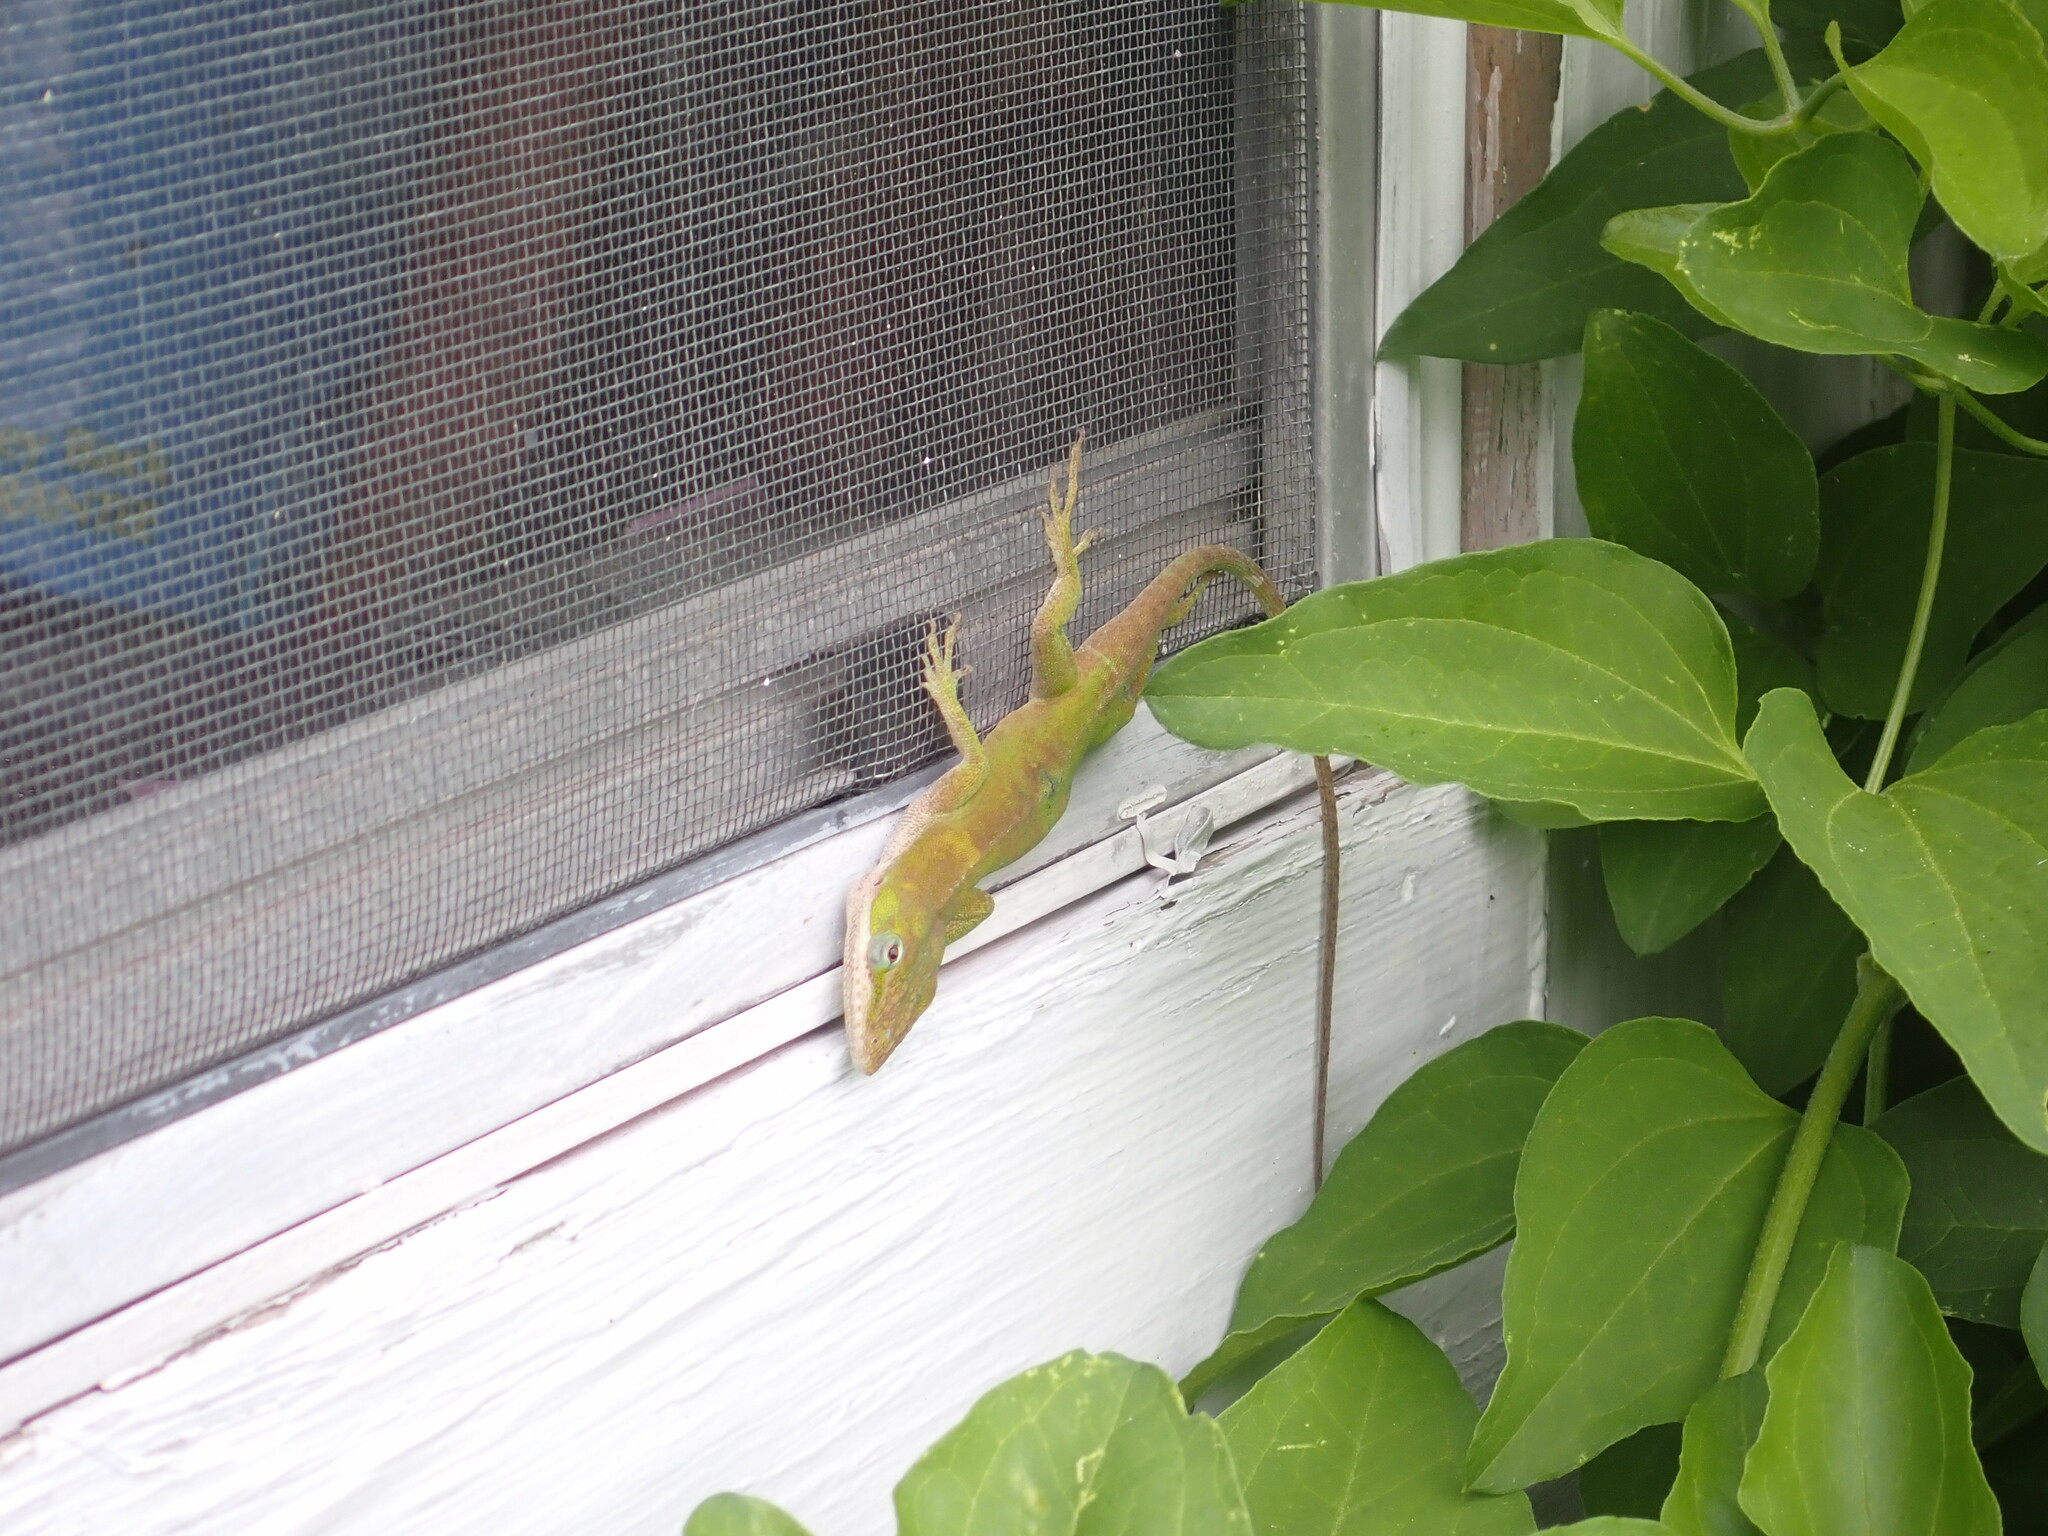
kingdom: Animalia
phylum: Chordata
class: Squamata
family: Dactyloidae
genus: Anolis
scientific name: Anolis carolinensis
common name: Green anole
